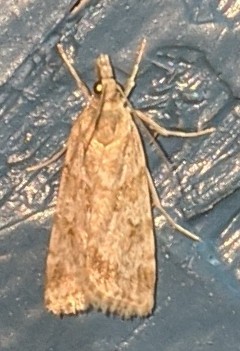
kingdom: Animalia
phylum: Arthropoda
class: Insecta
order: Lepidoptera
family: Crambidae
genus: Scoparia
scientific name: Scoparia biplagialis
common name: Double-striped scoparia moth
